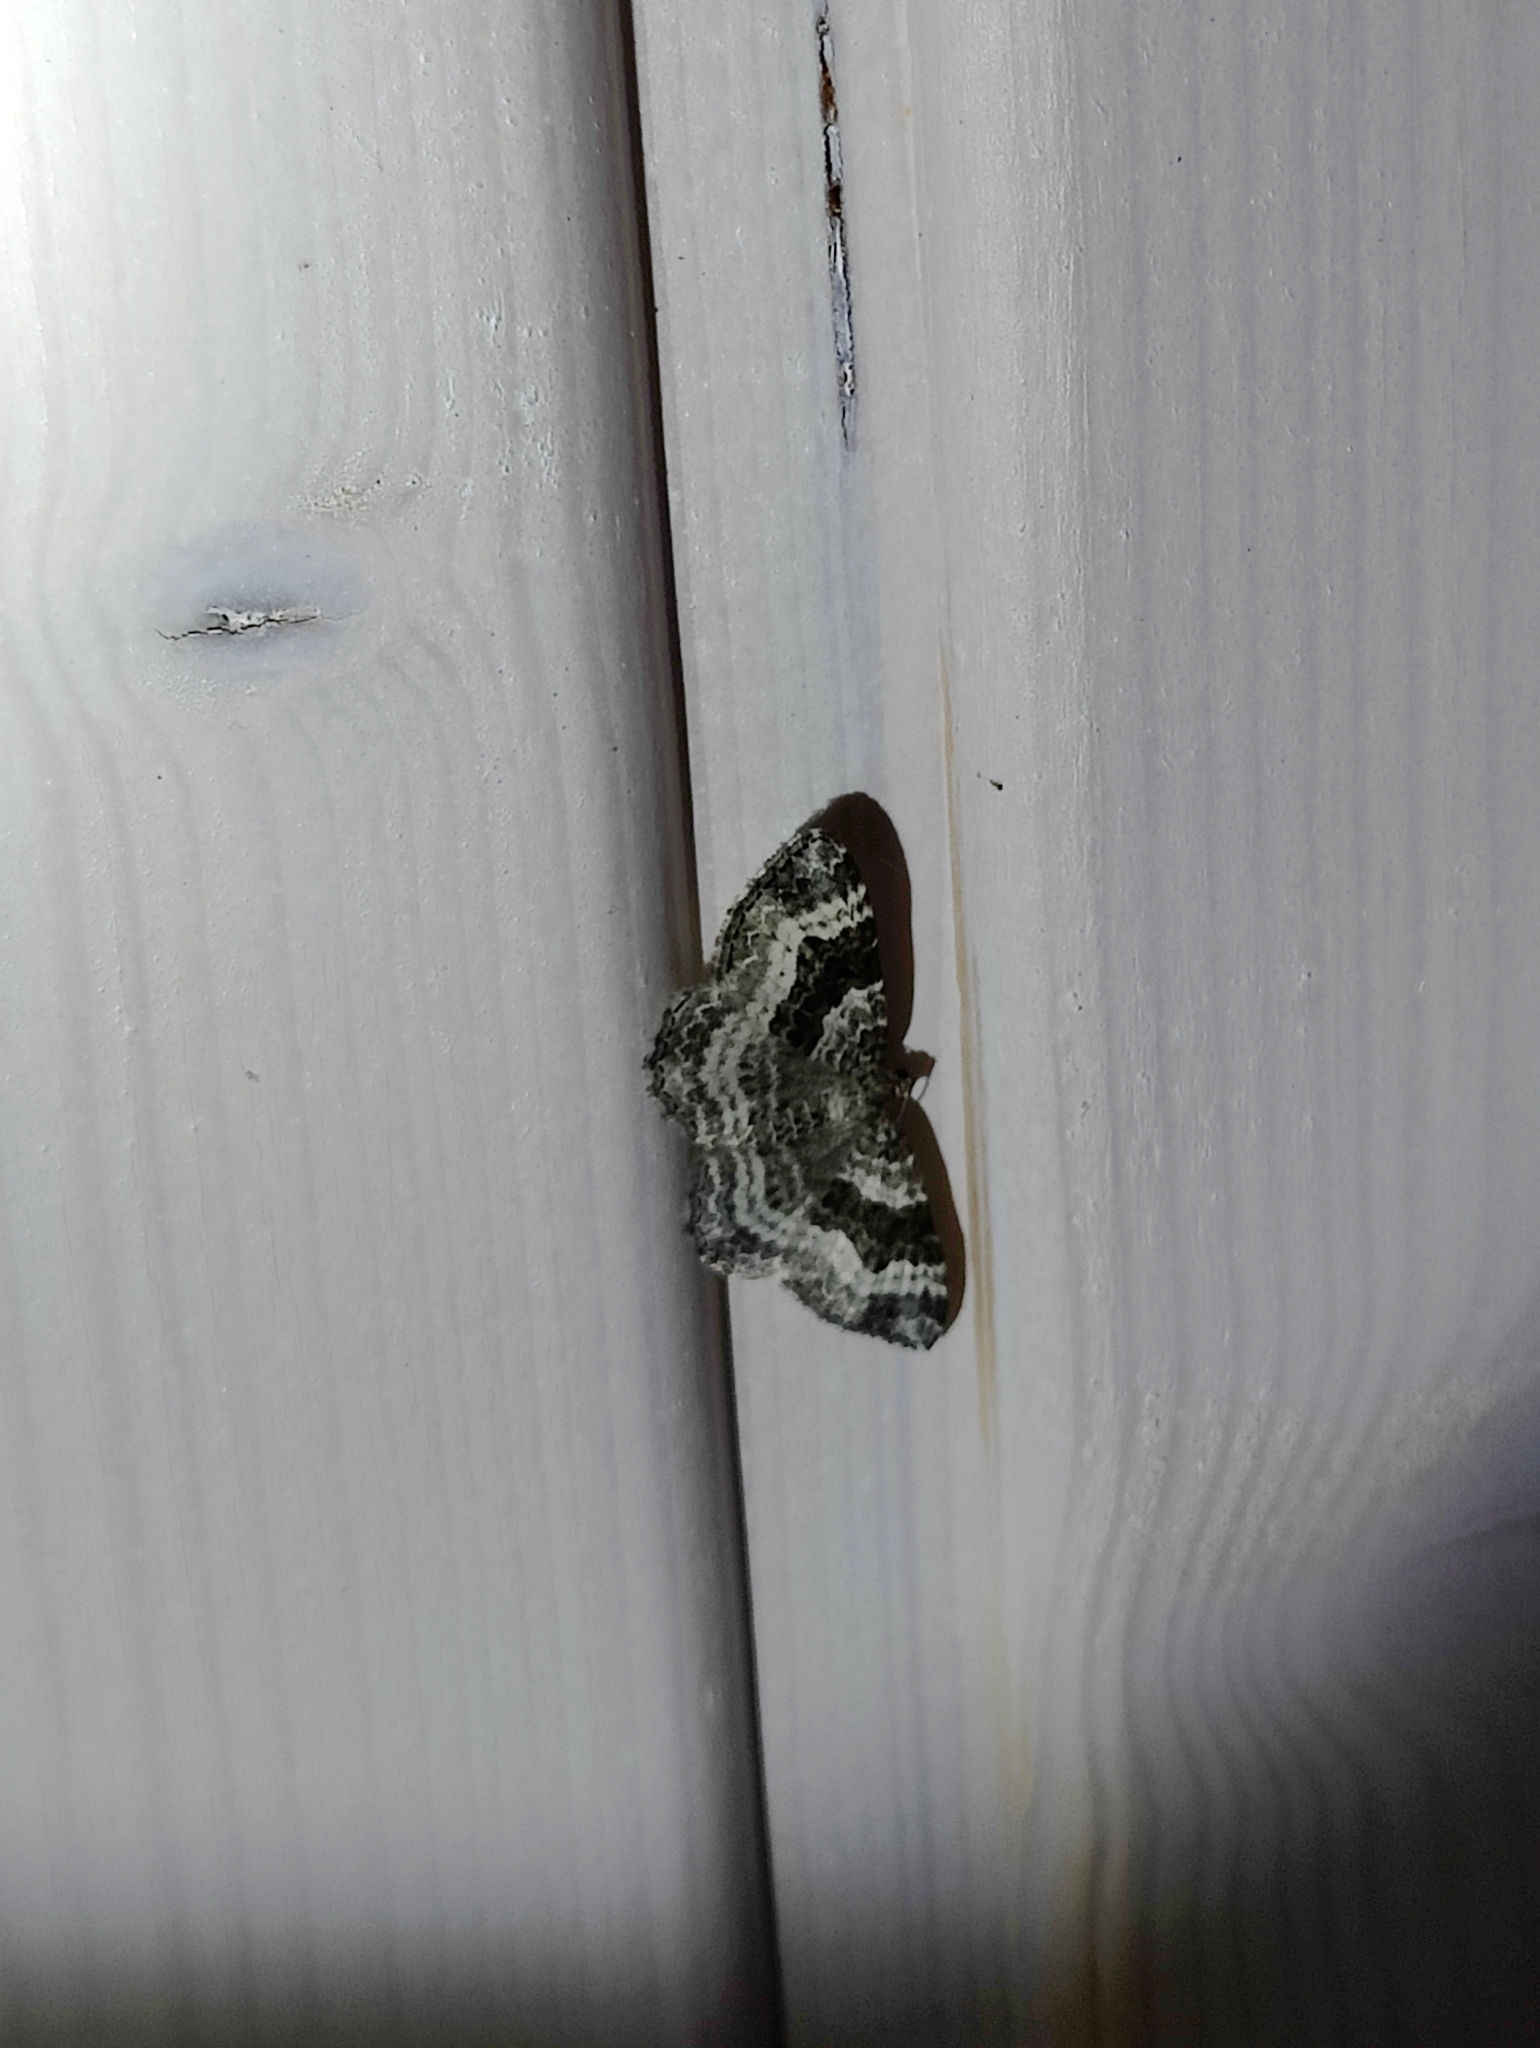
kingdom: Animalia
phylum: Arthropoda
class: Insecta
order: Lepidoptera
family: Geometridae
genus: Epirrhoe
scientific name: Epirrhoe alternata
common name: Common carpet
